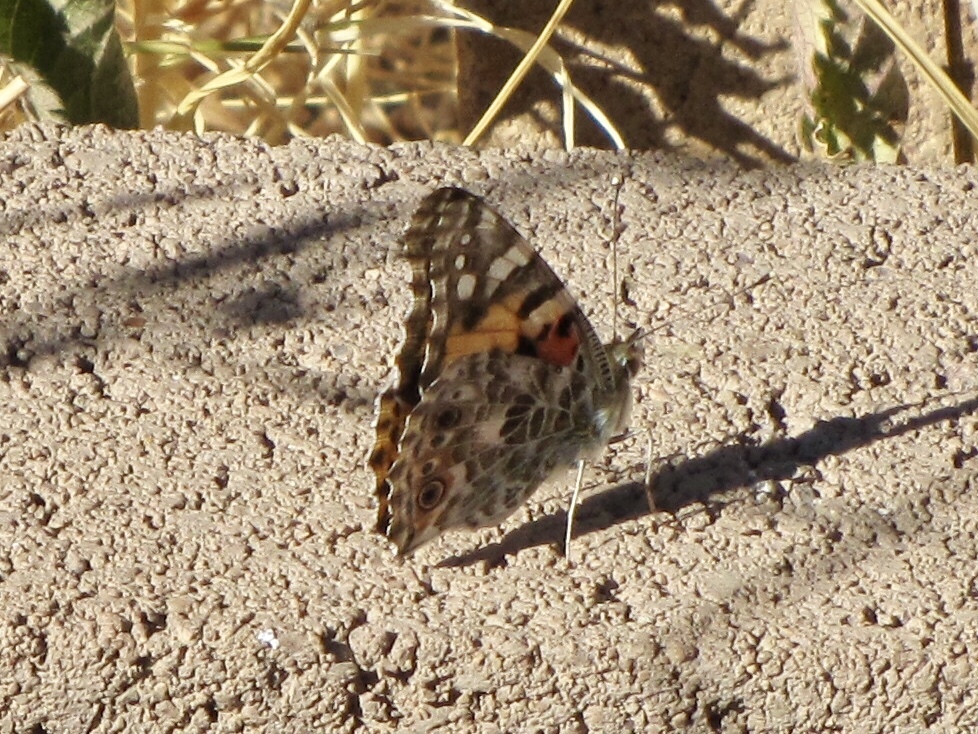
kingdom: Animalia
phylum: Arthropoda
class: Insecta
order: Lepidoptera
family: Nymphalidae
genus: Vanessa
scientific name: Vanessa cardui
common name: Painted lady
